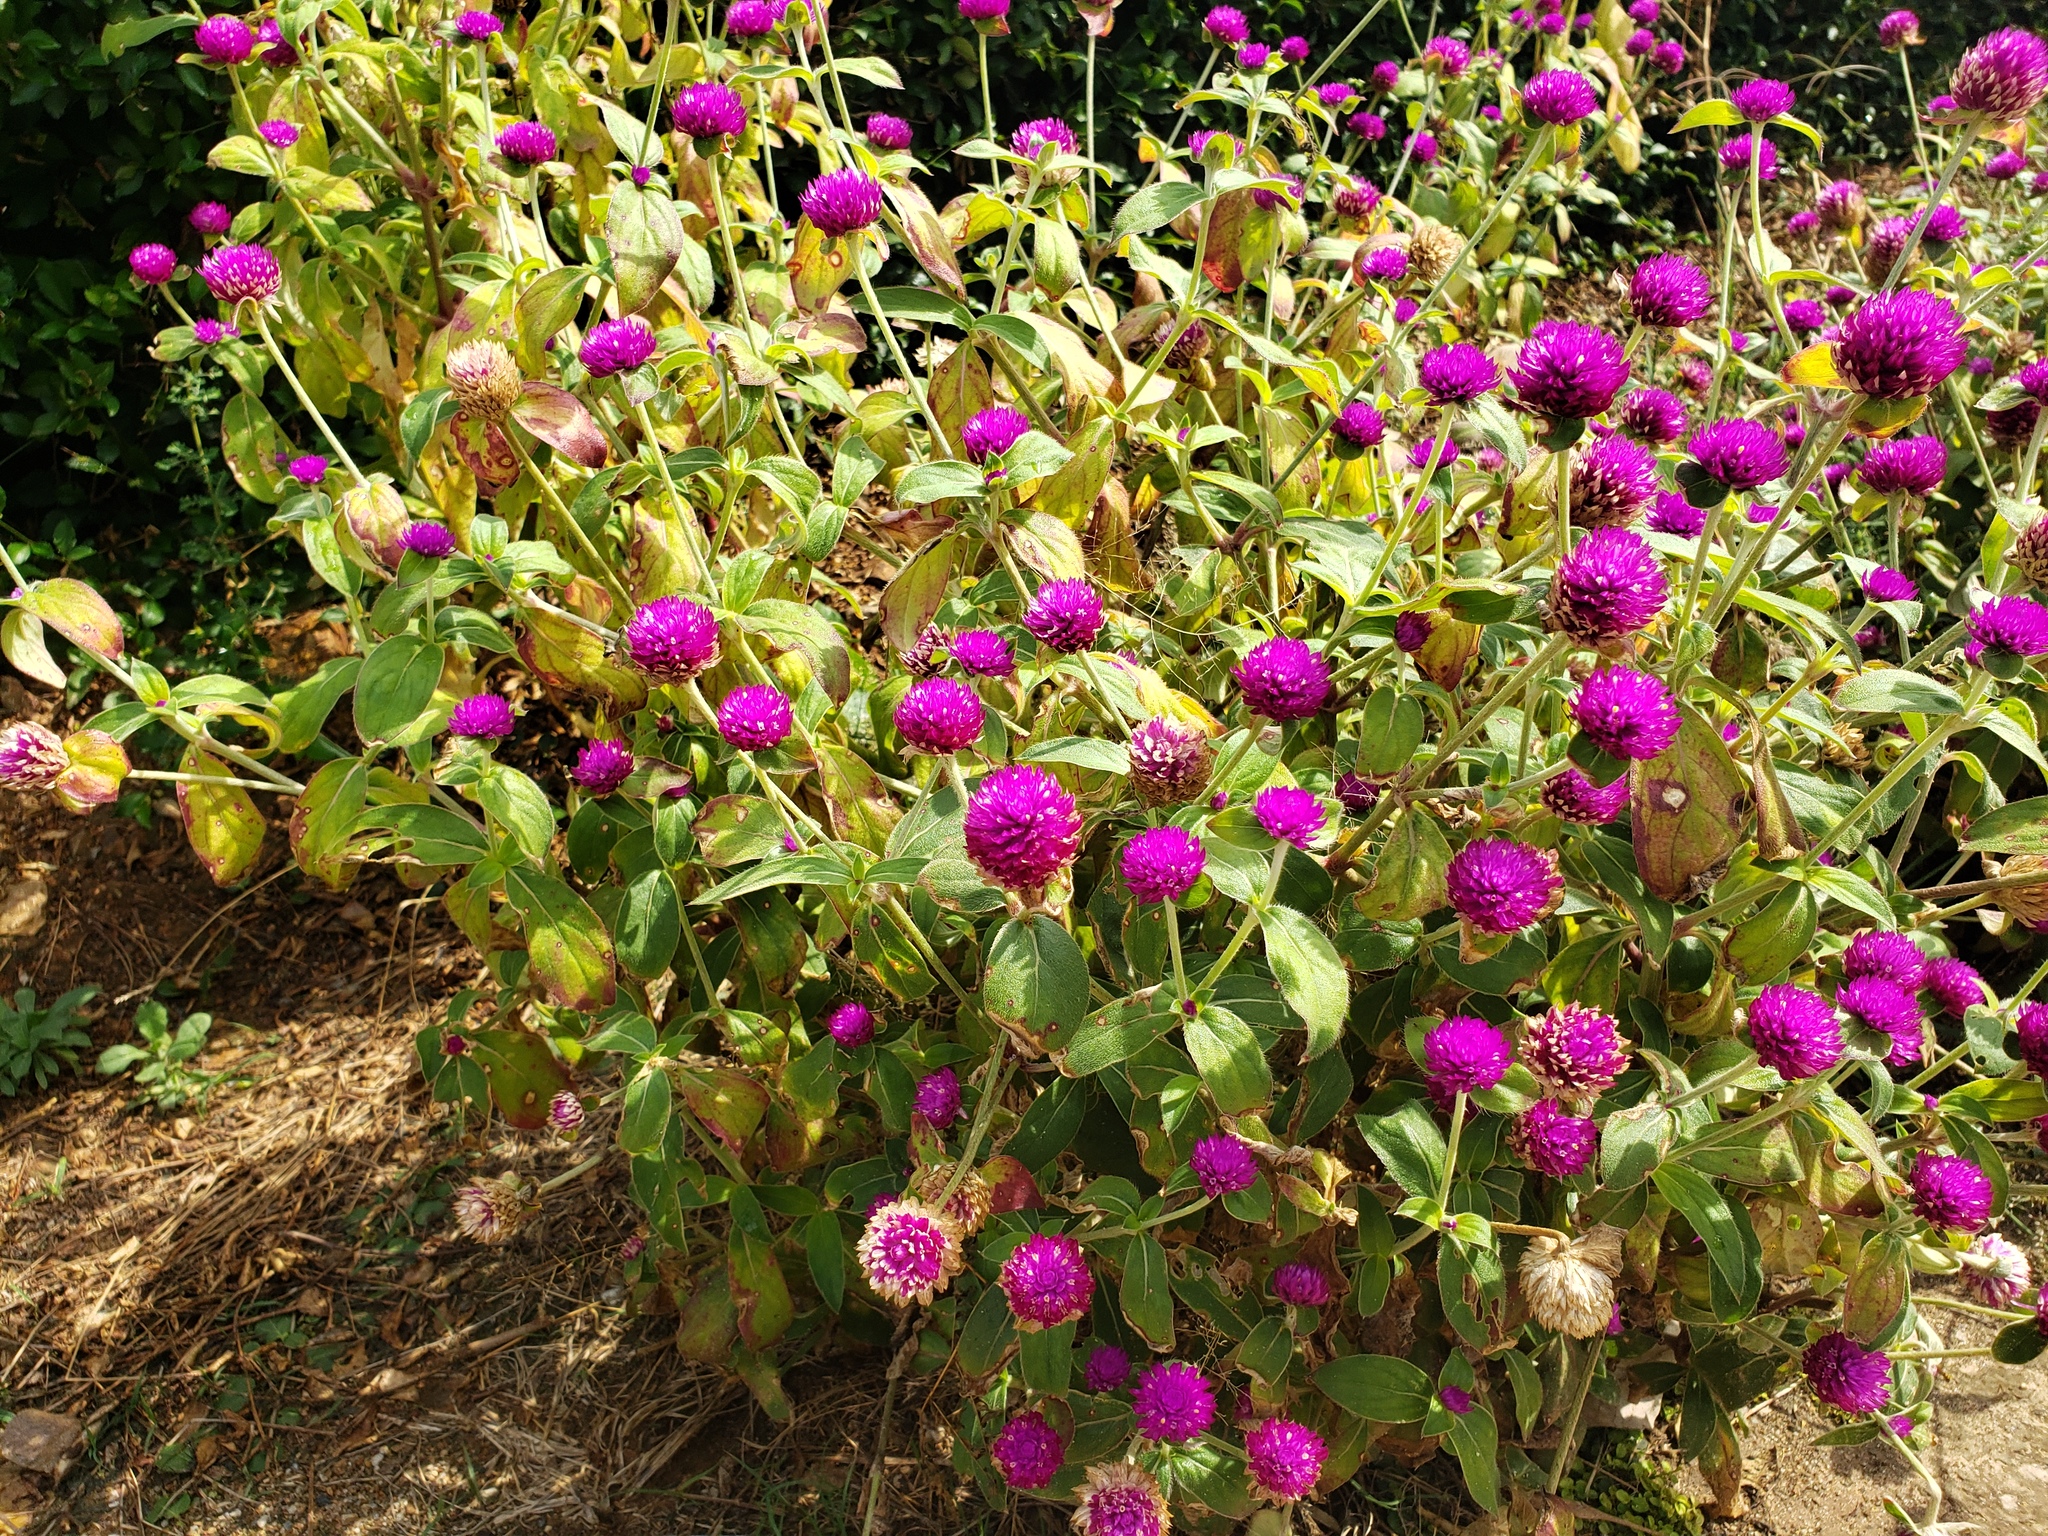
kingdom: Plantae
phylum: Tracheophyta
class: Magnoliopsida
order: Caryophyllales
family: Amaranthaceae
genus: Gomphrena
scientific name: Gomphrena globosa
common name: Common globe amaranth
